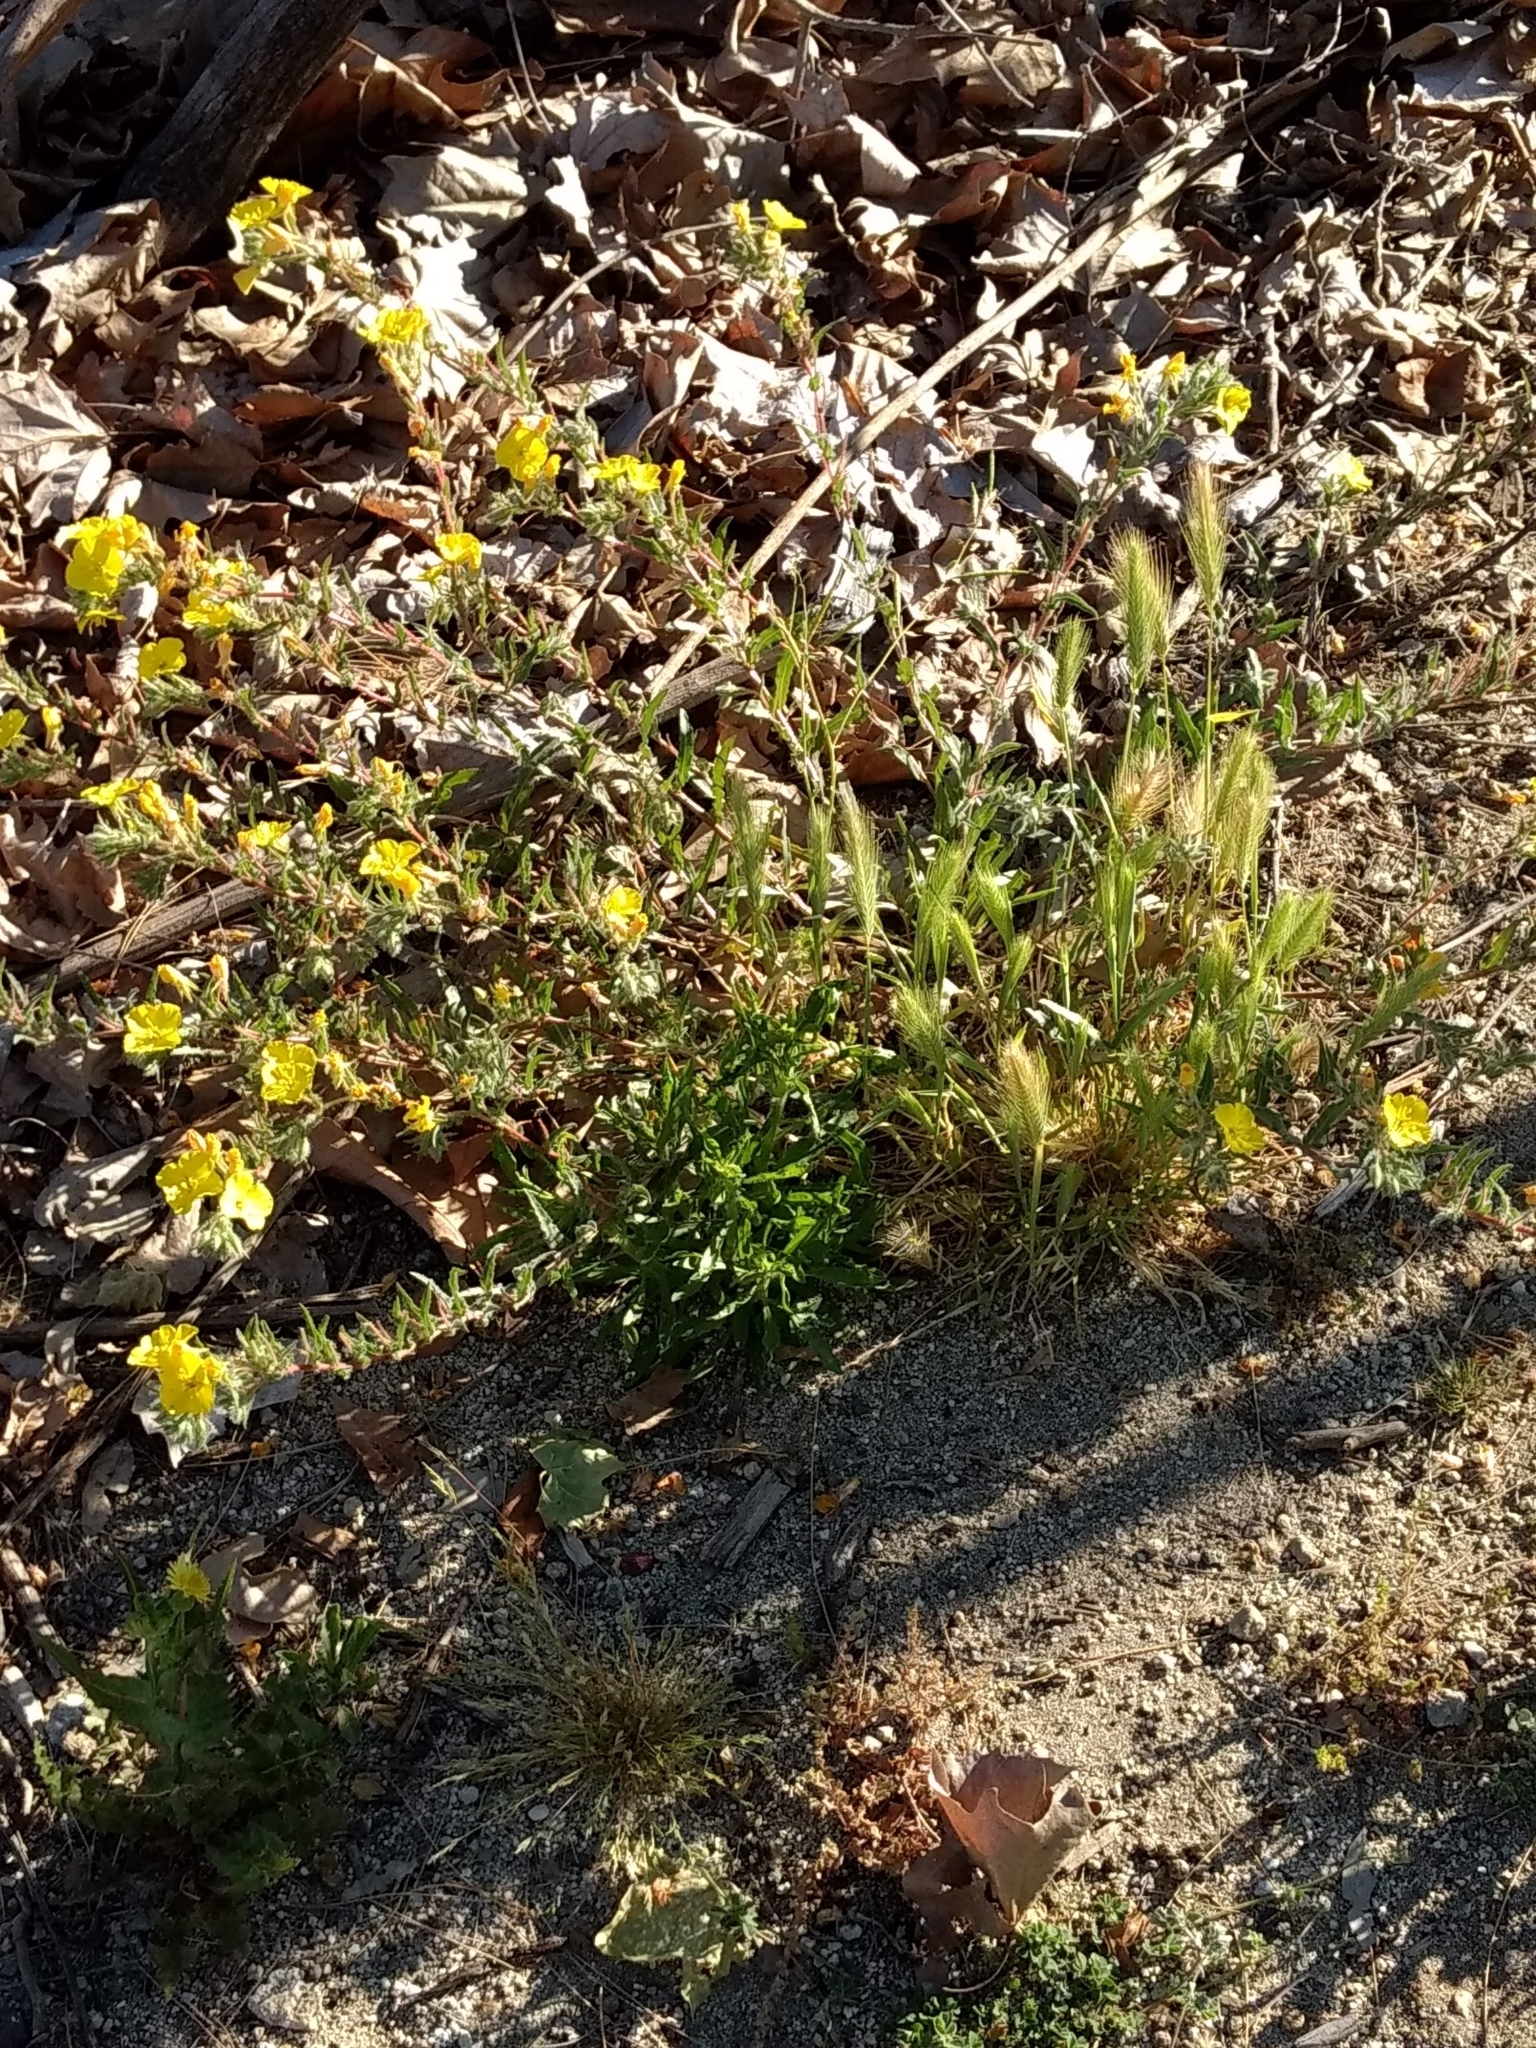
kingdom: Plantae
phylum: Tracheophyta
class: Liliopsida
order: Poales
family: Poaceae
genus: Hordeum
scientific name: Hordeum murinum
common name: Wall barley
